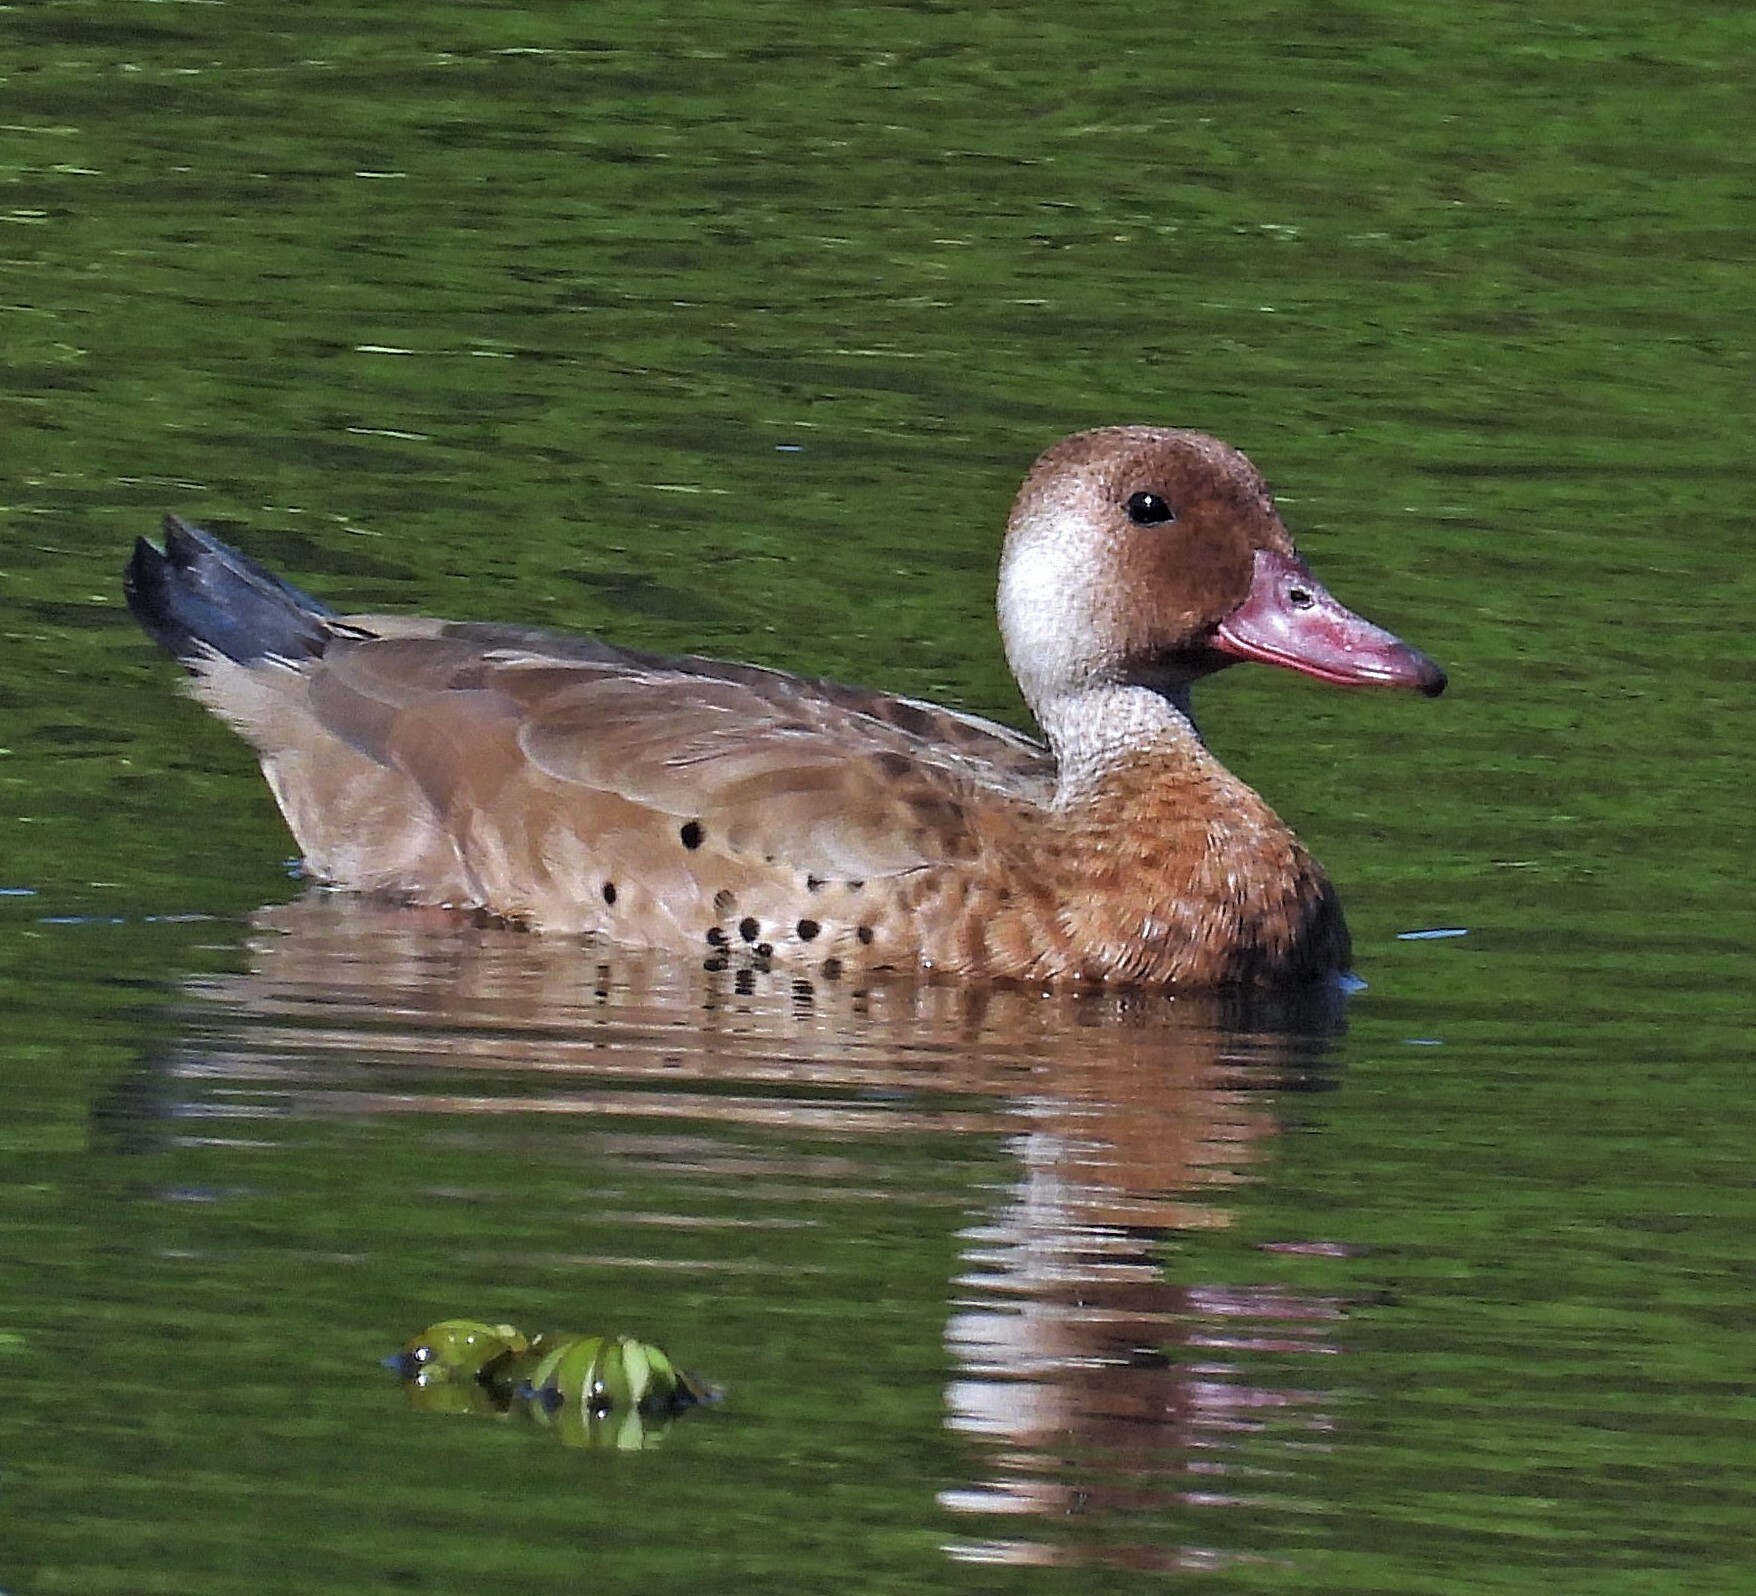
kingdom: Animalia
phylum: Chordata
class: Aves
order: Anseriformes
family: Anatidae
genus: Amazonetta
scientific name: Amazonetta brasiliensis
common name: Brazilian teal
